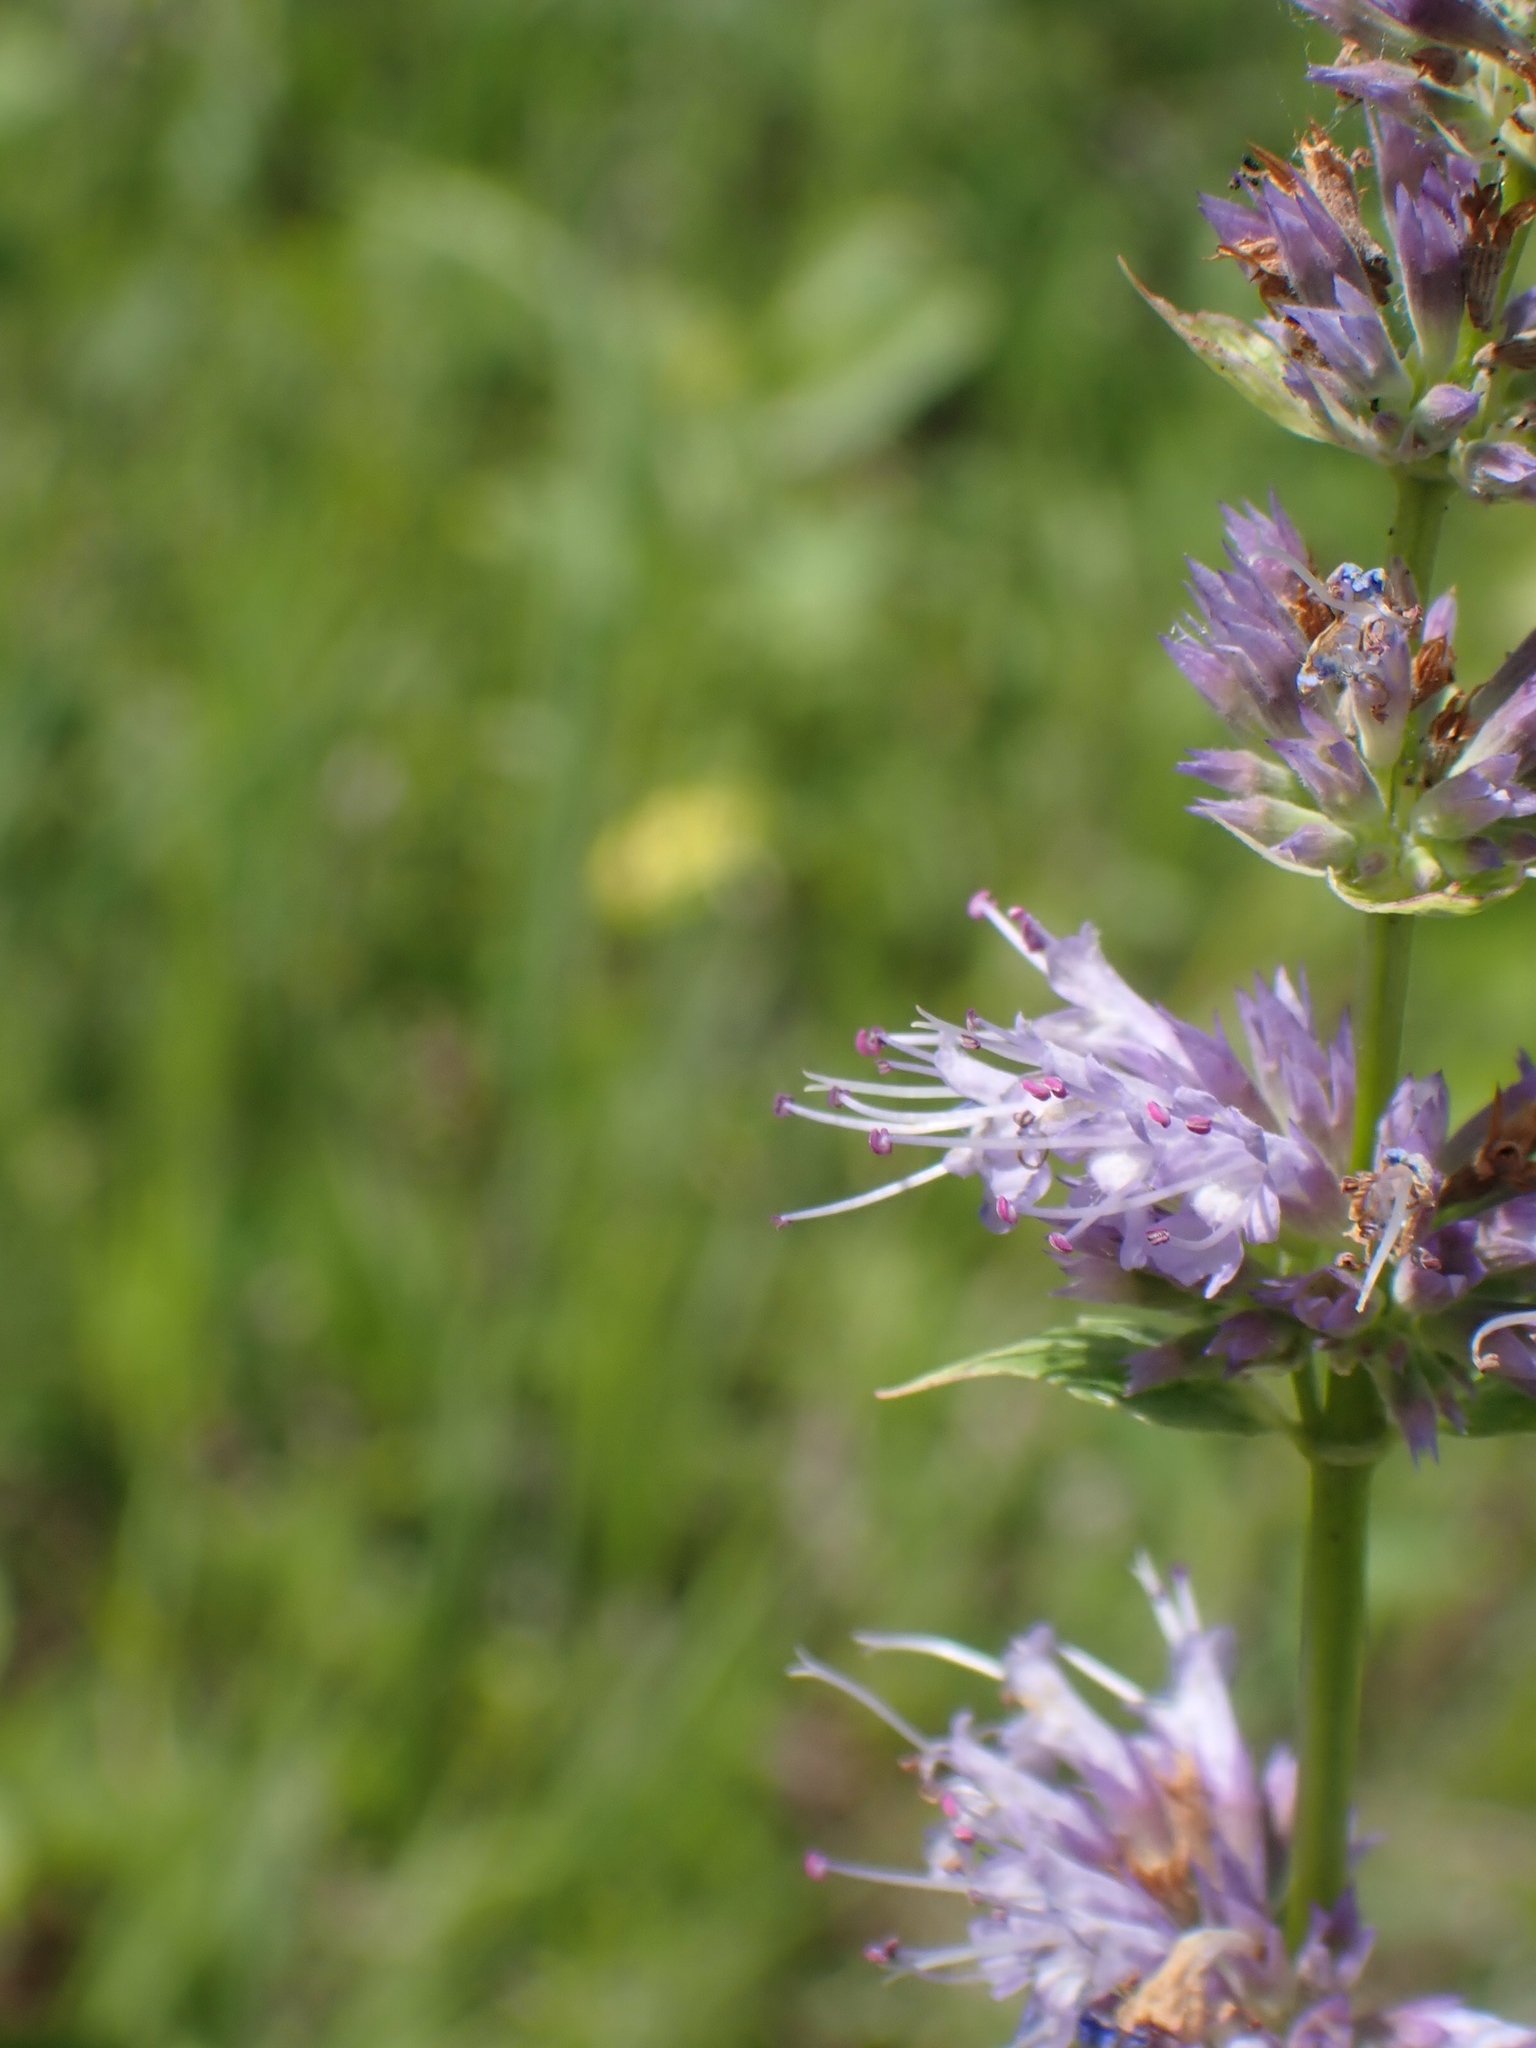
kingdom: Plantae
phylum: Tracheophyta
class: Magnoliopsida
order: Lamiales
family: Lamiaceae
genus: Agastache
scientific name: Agastache foeniculum
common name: Anise hyssop
